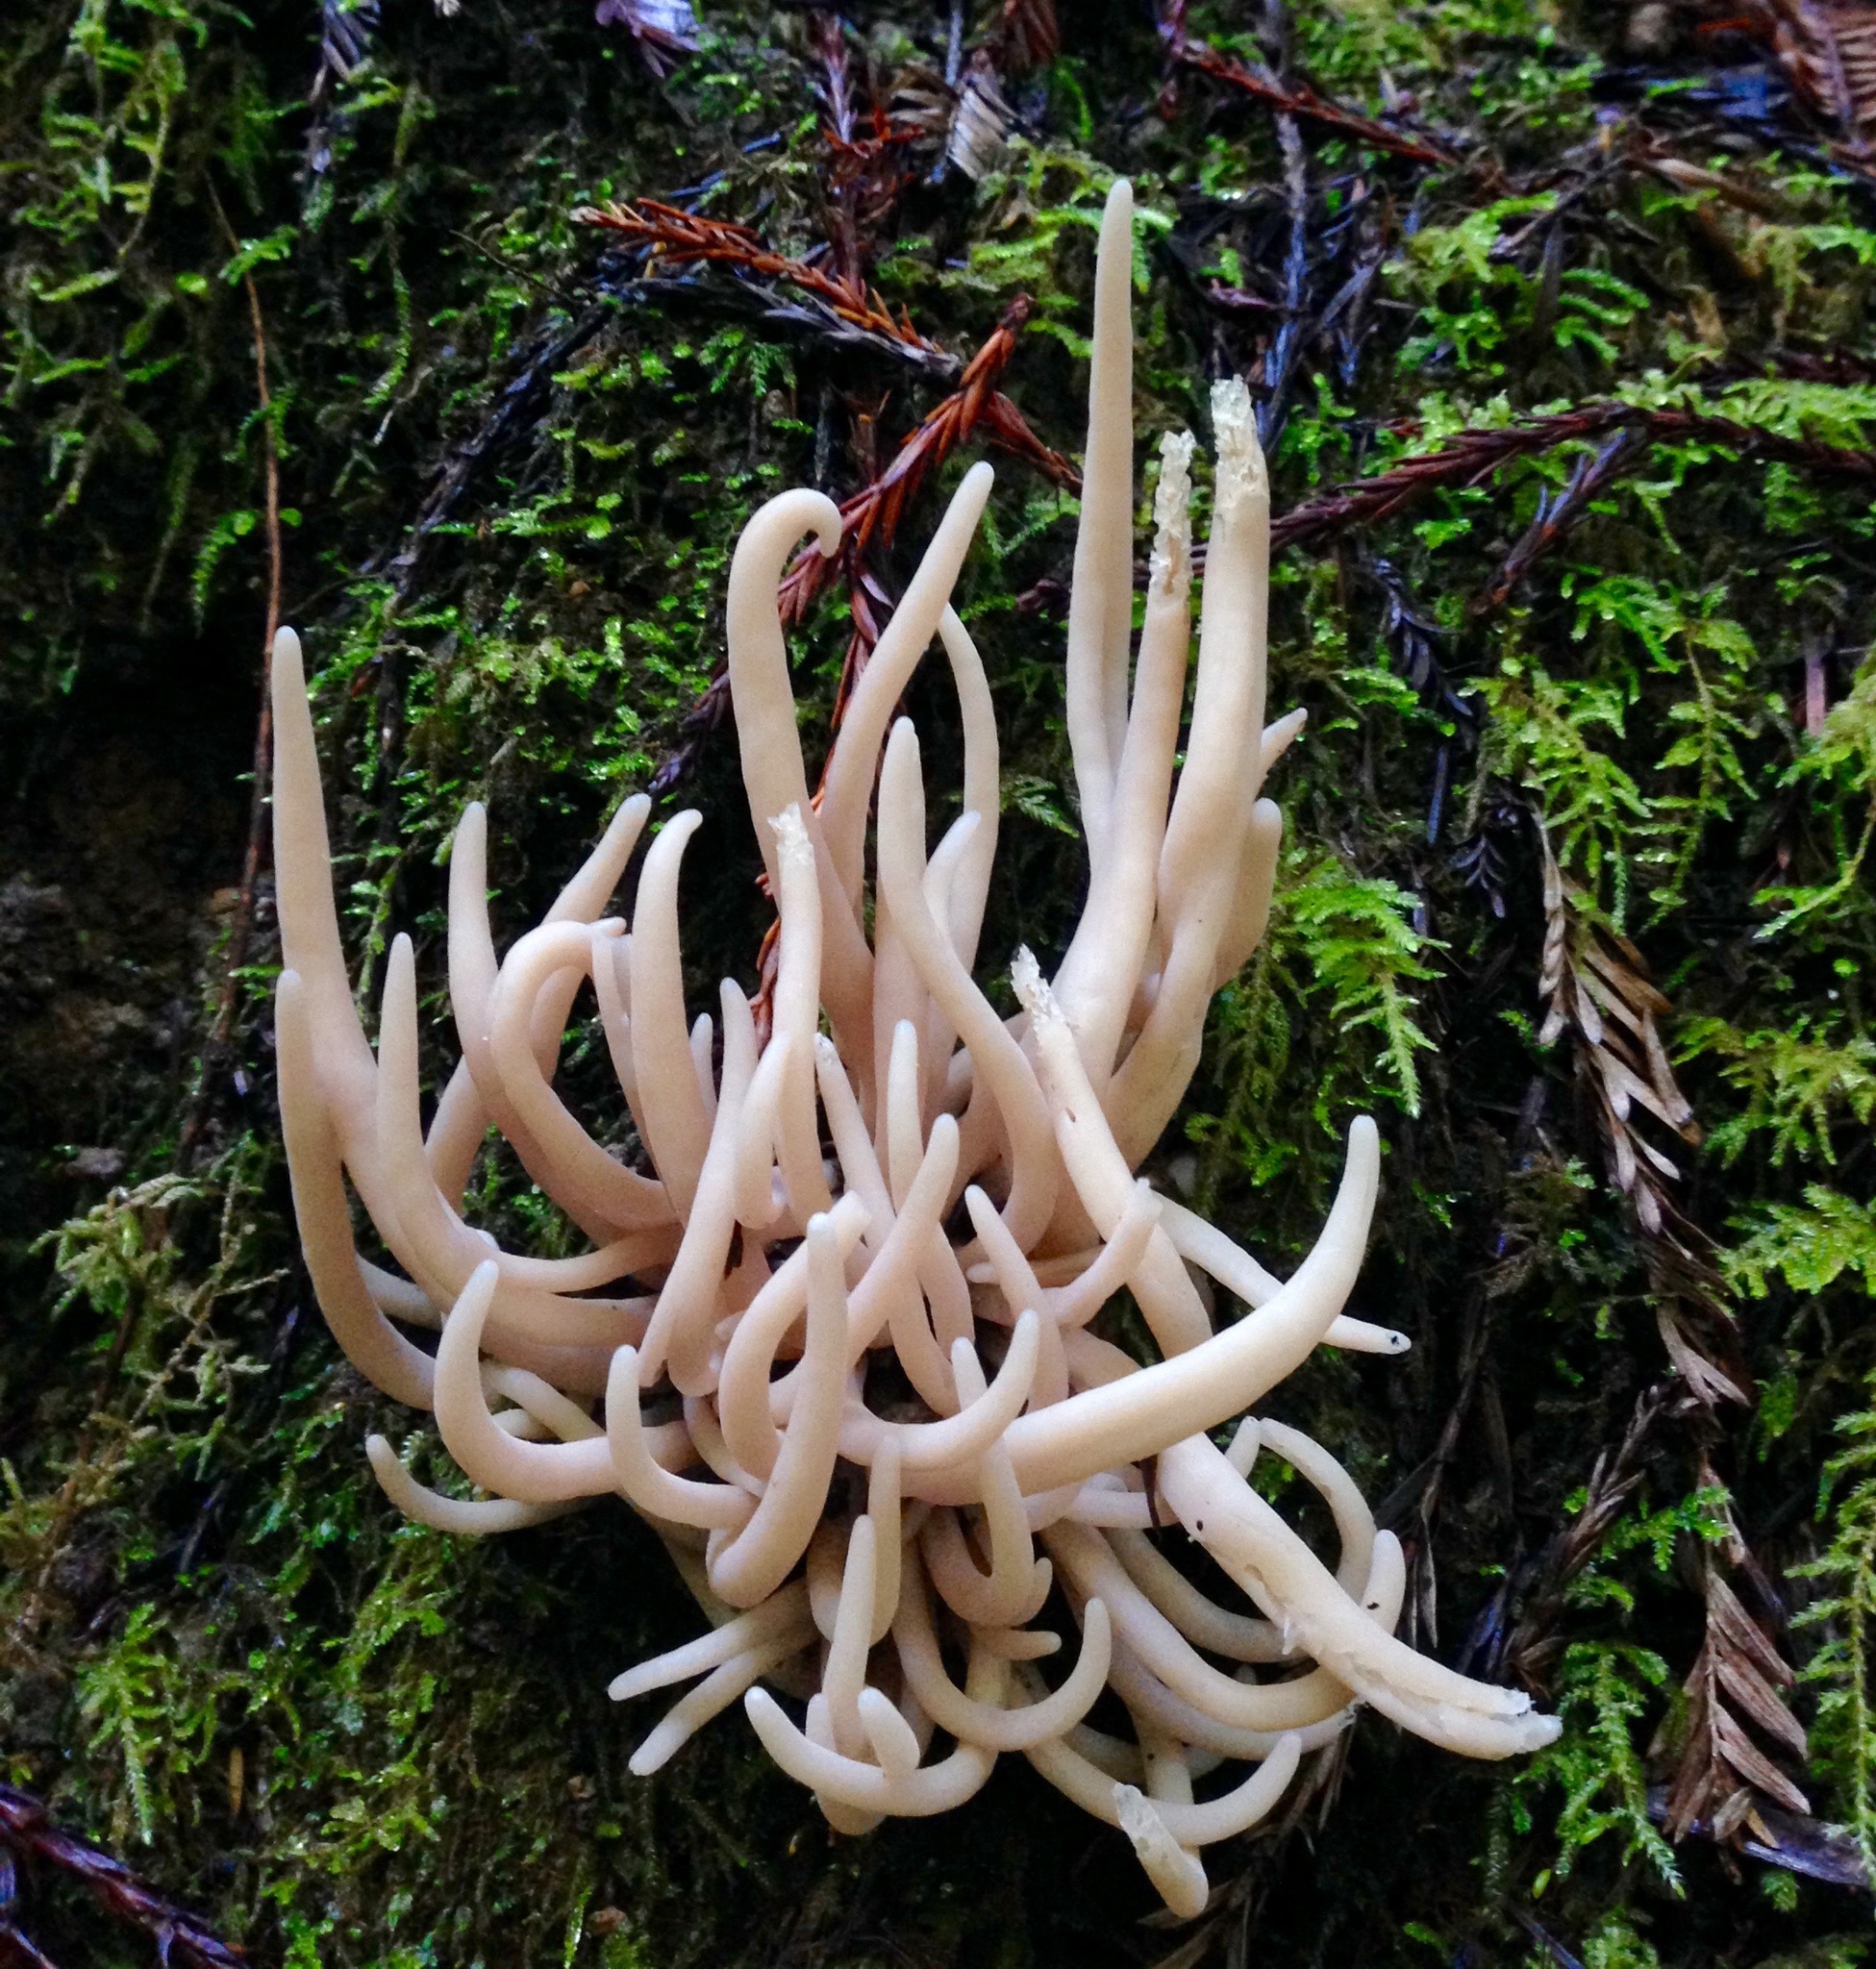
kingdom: Fungi
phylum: Basidiomycota
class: Agaricomycetes
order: Agaricales
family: Clavariaceae
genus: Clavaria
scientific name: Clavaria fumosa
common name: Smoky spindles
